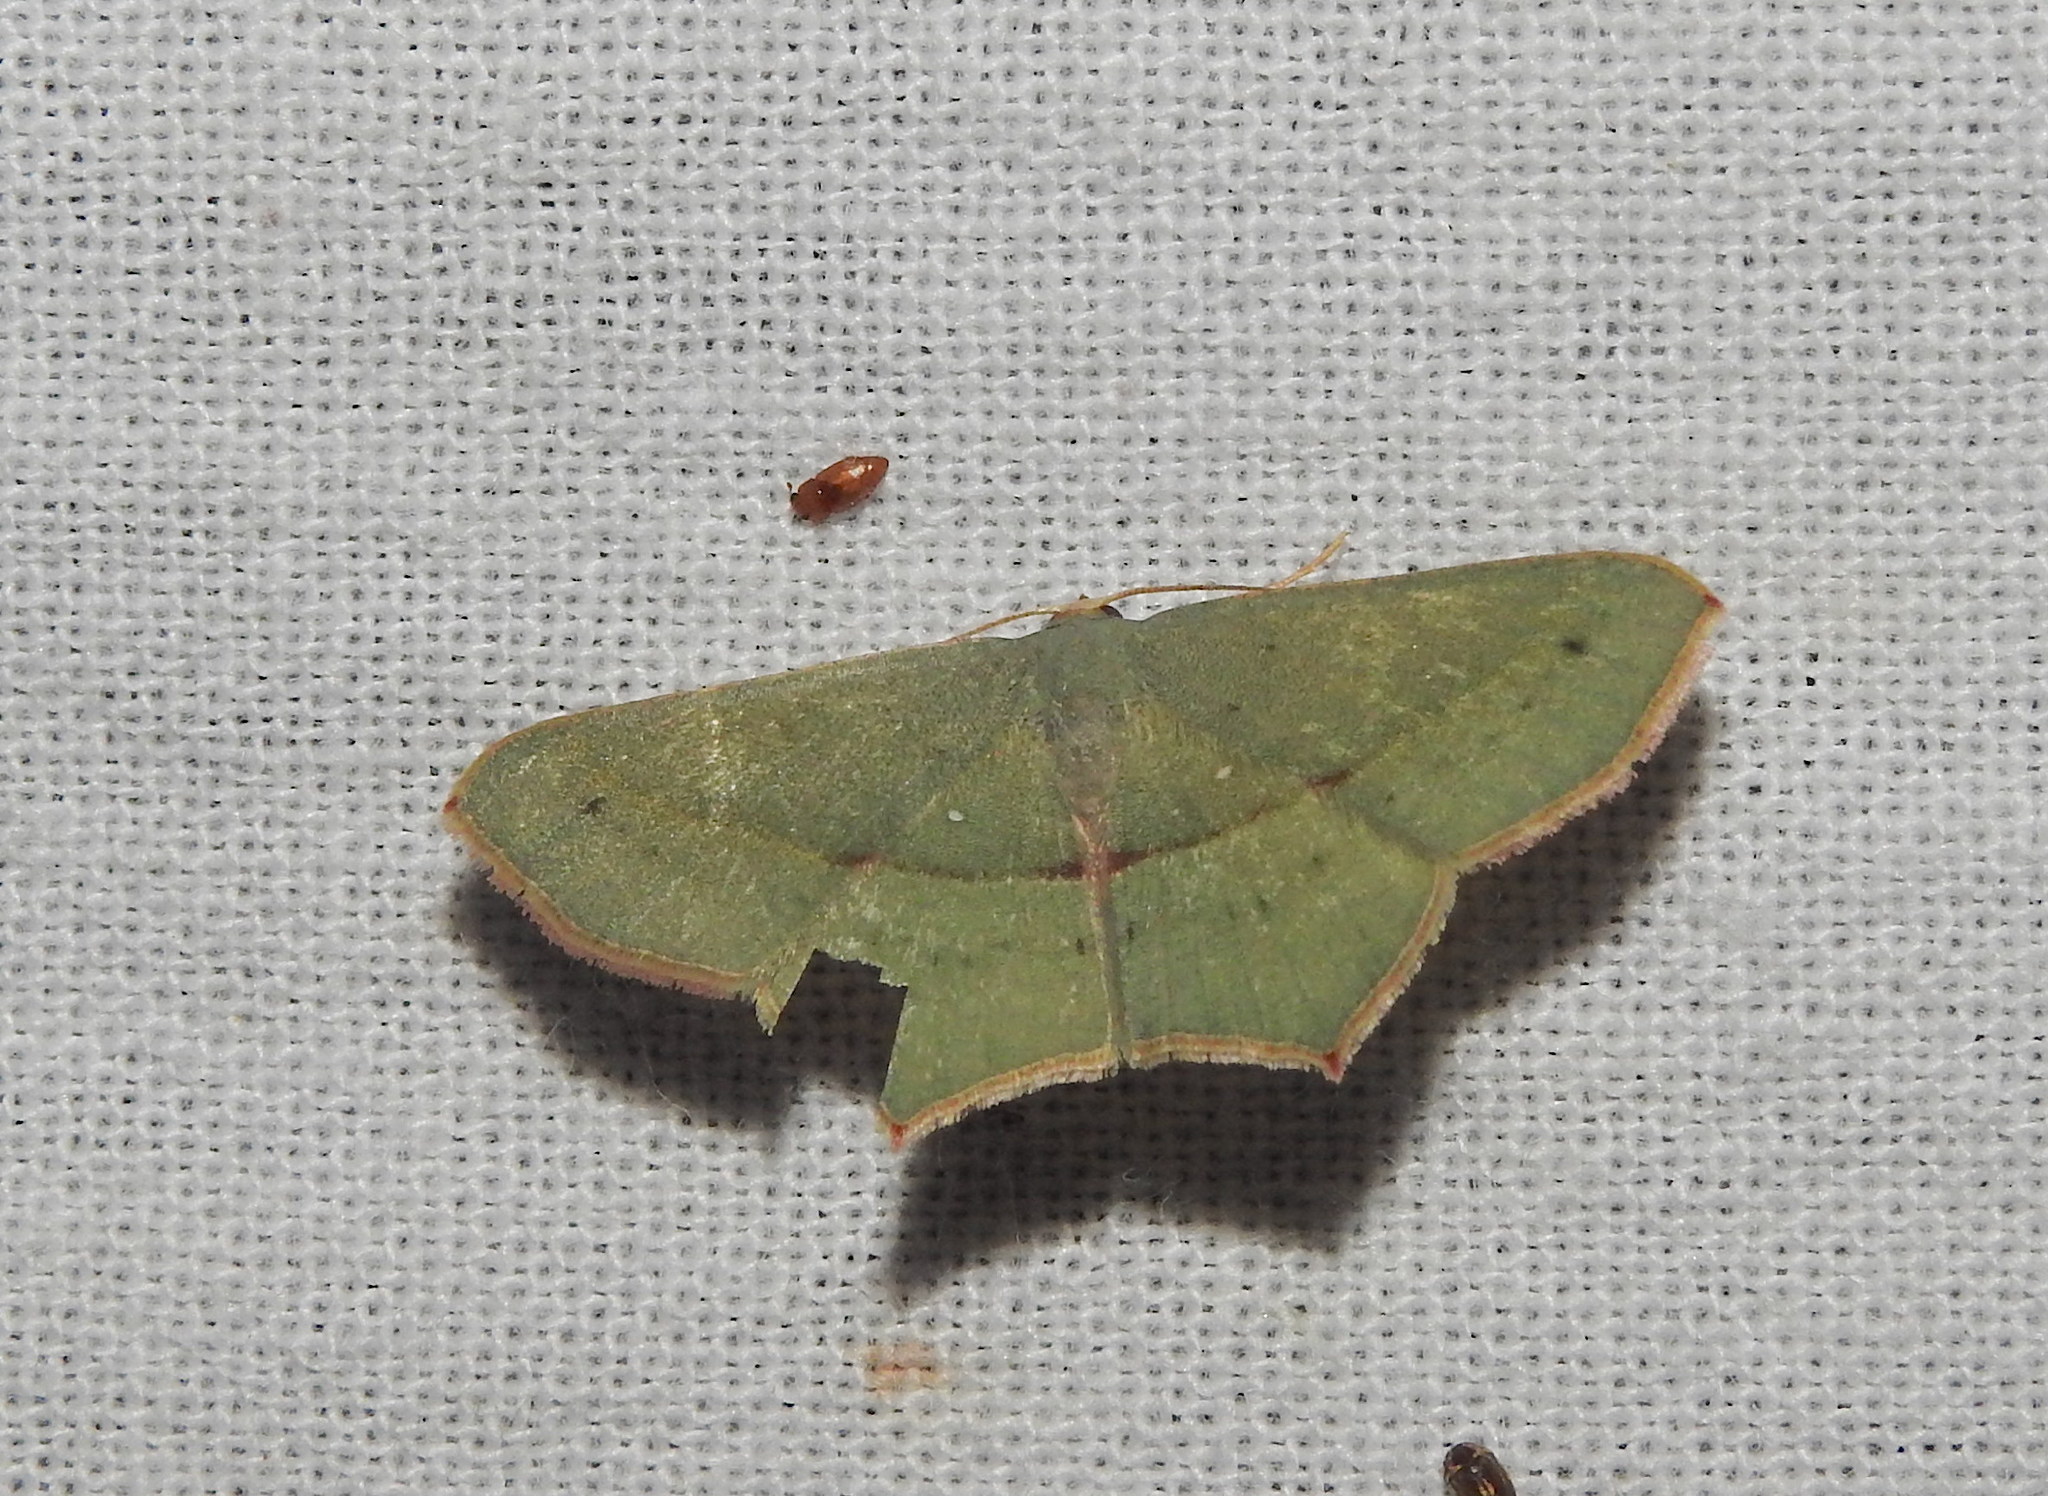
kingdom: Animalia
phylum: Arthropoda
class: Insecta
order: Lepidoptera
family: Geometridae
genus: Traminda
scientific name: Traminda mundissima
